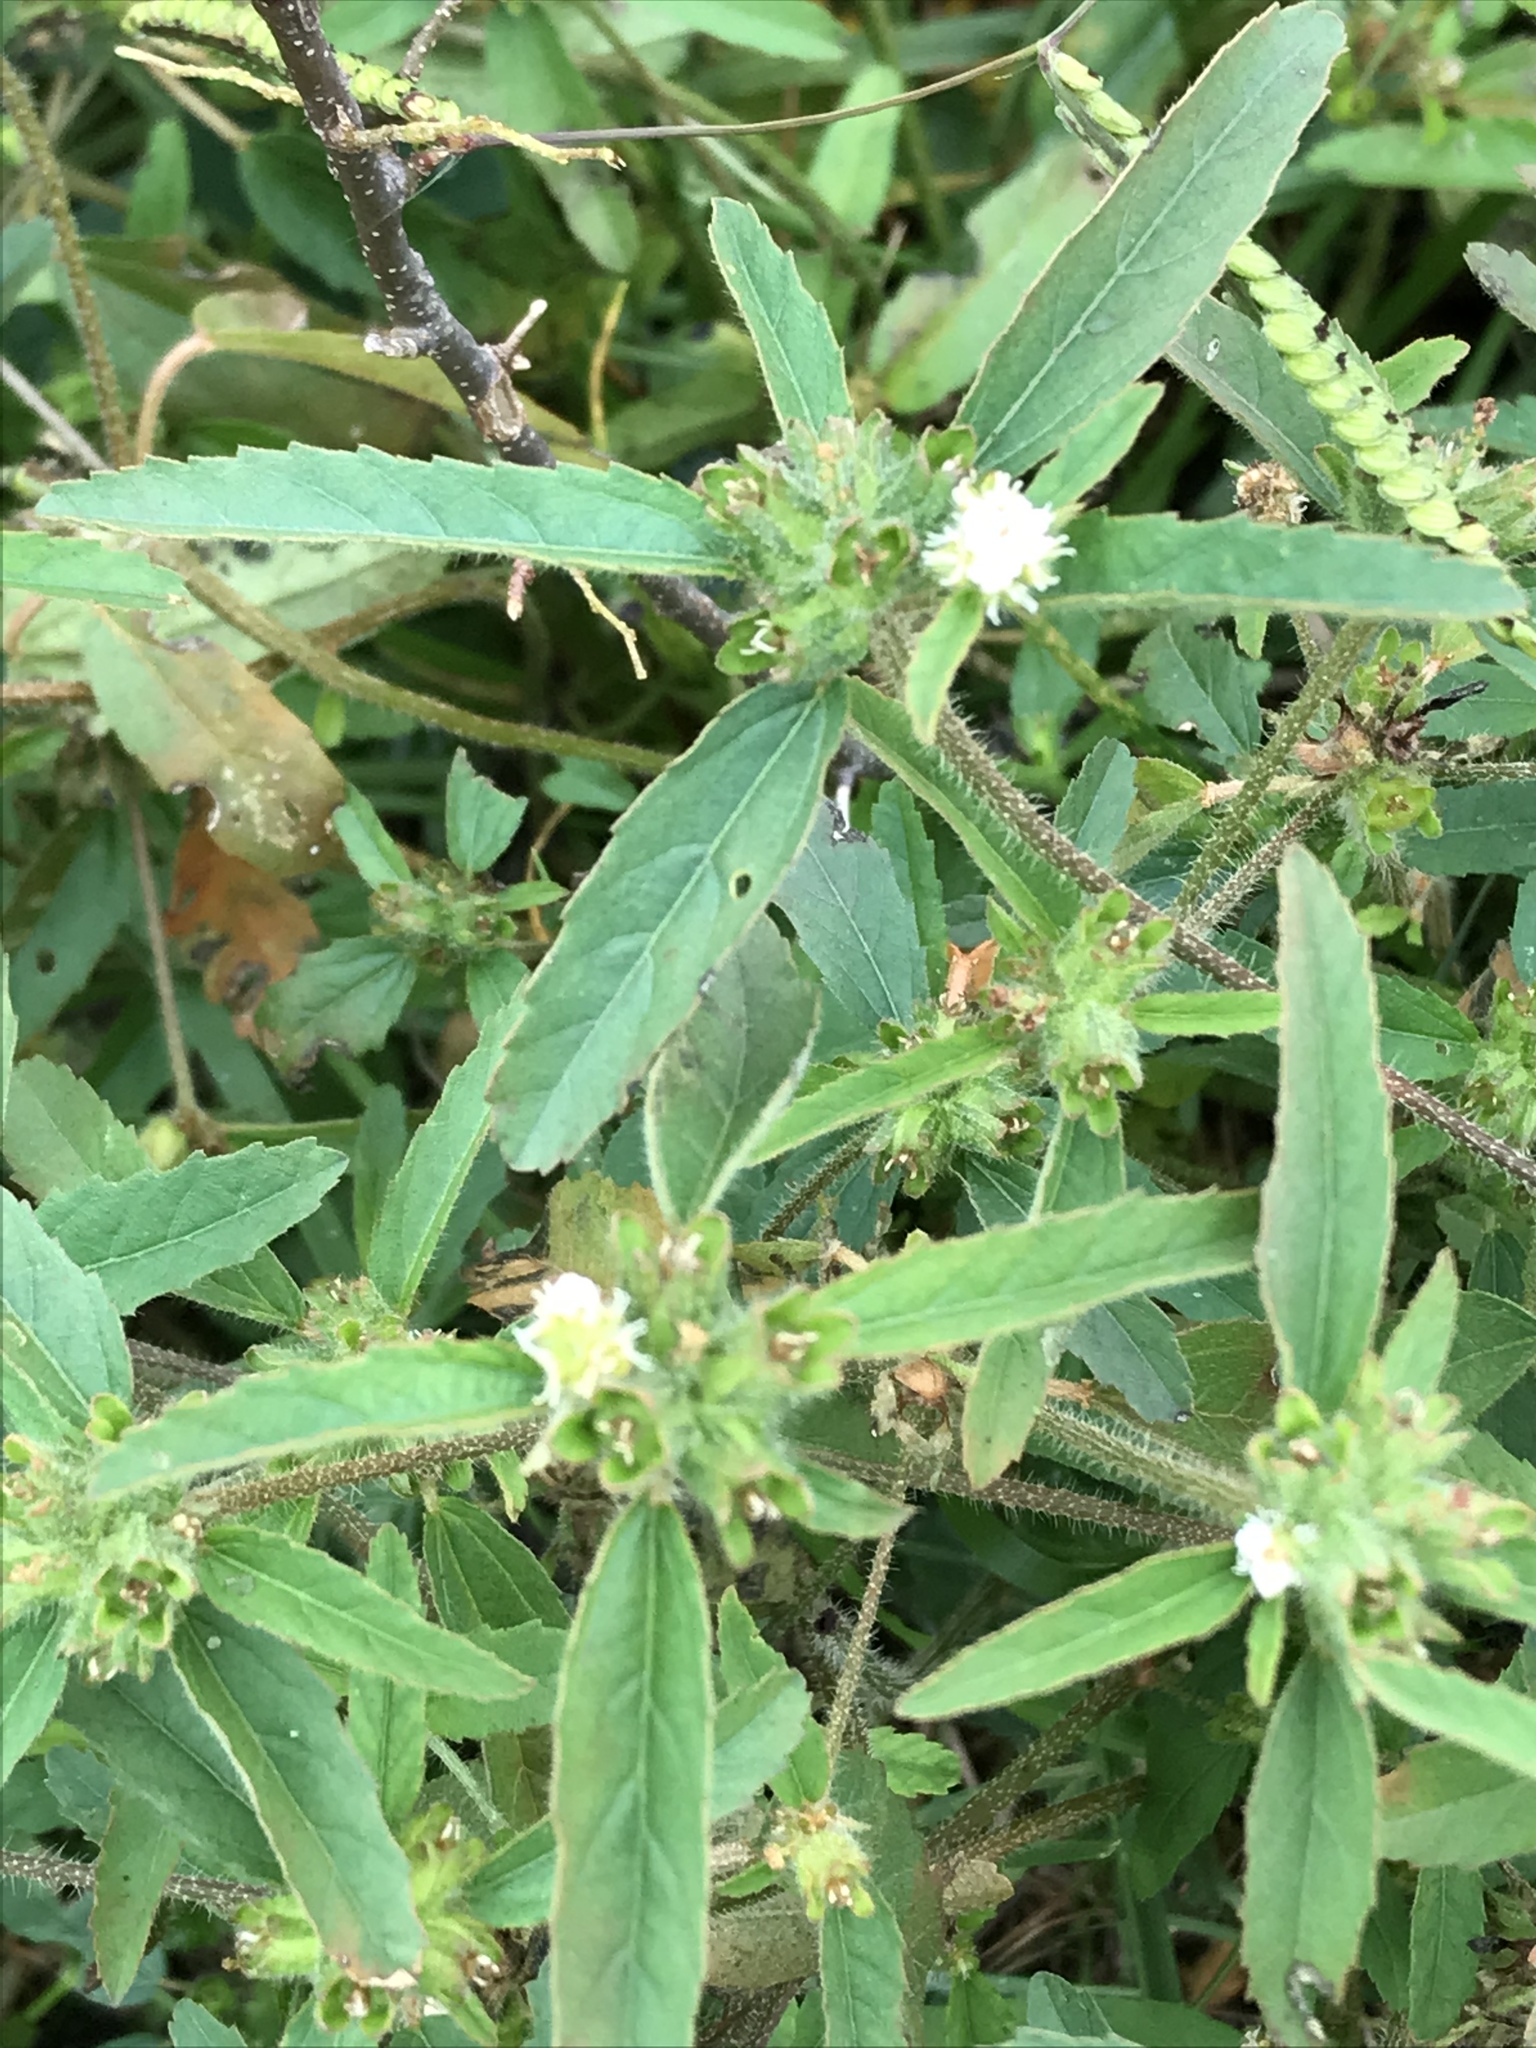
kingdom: Plantae
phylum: Tracheophyta
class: Magnoliopsida
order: Malpighiales
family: Euphorbiaceae
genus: Croton
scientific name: Croton glandulosus
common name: Tropic croton
